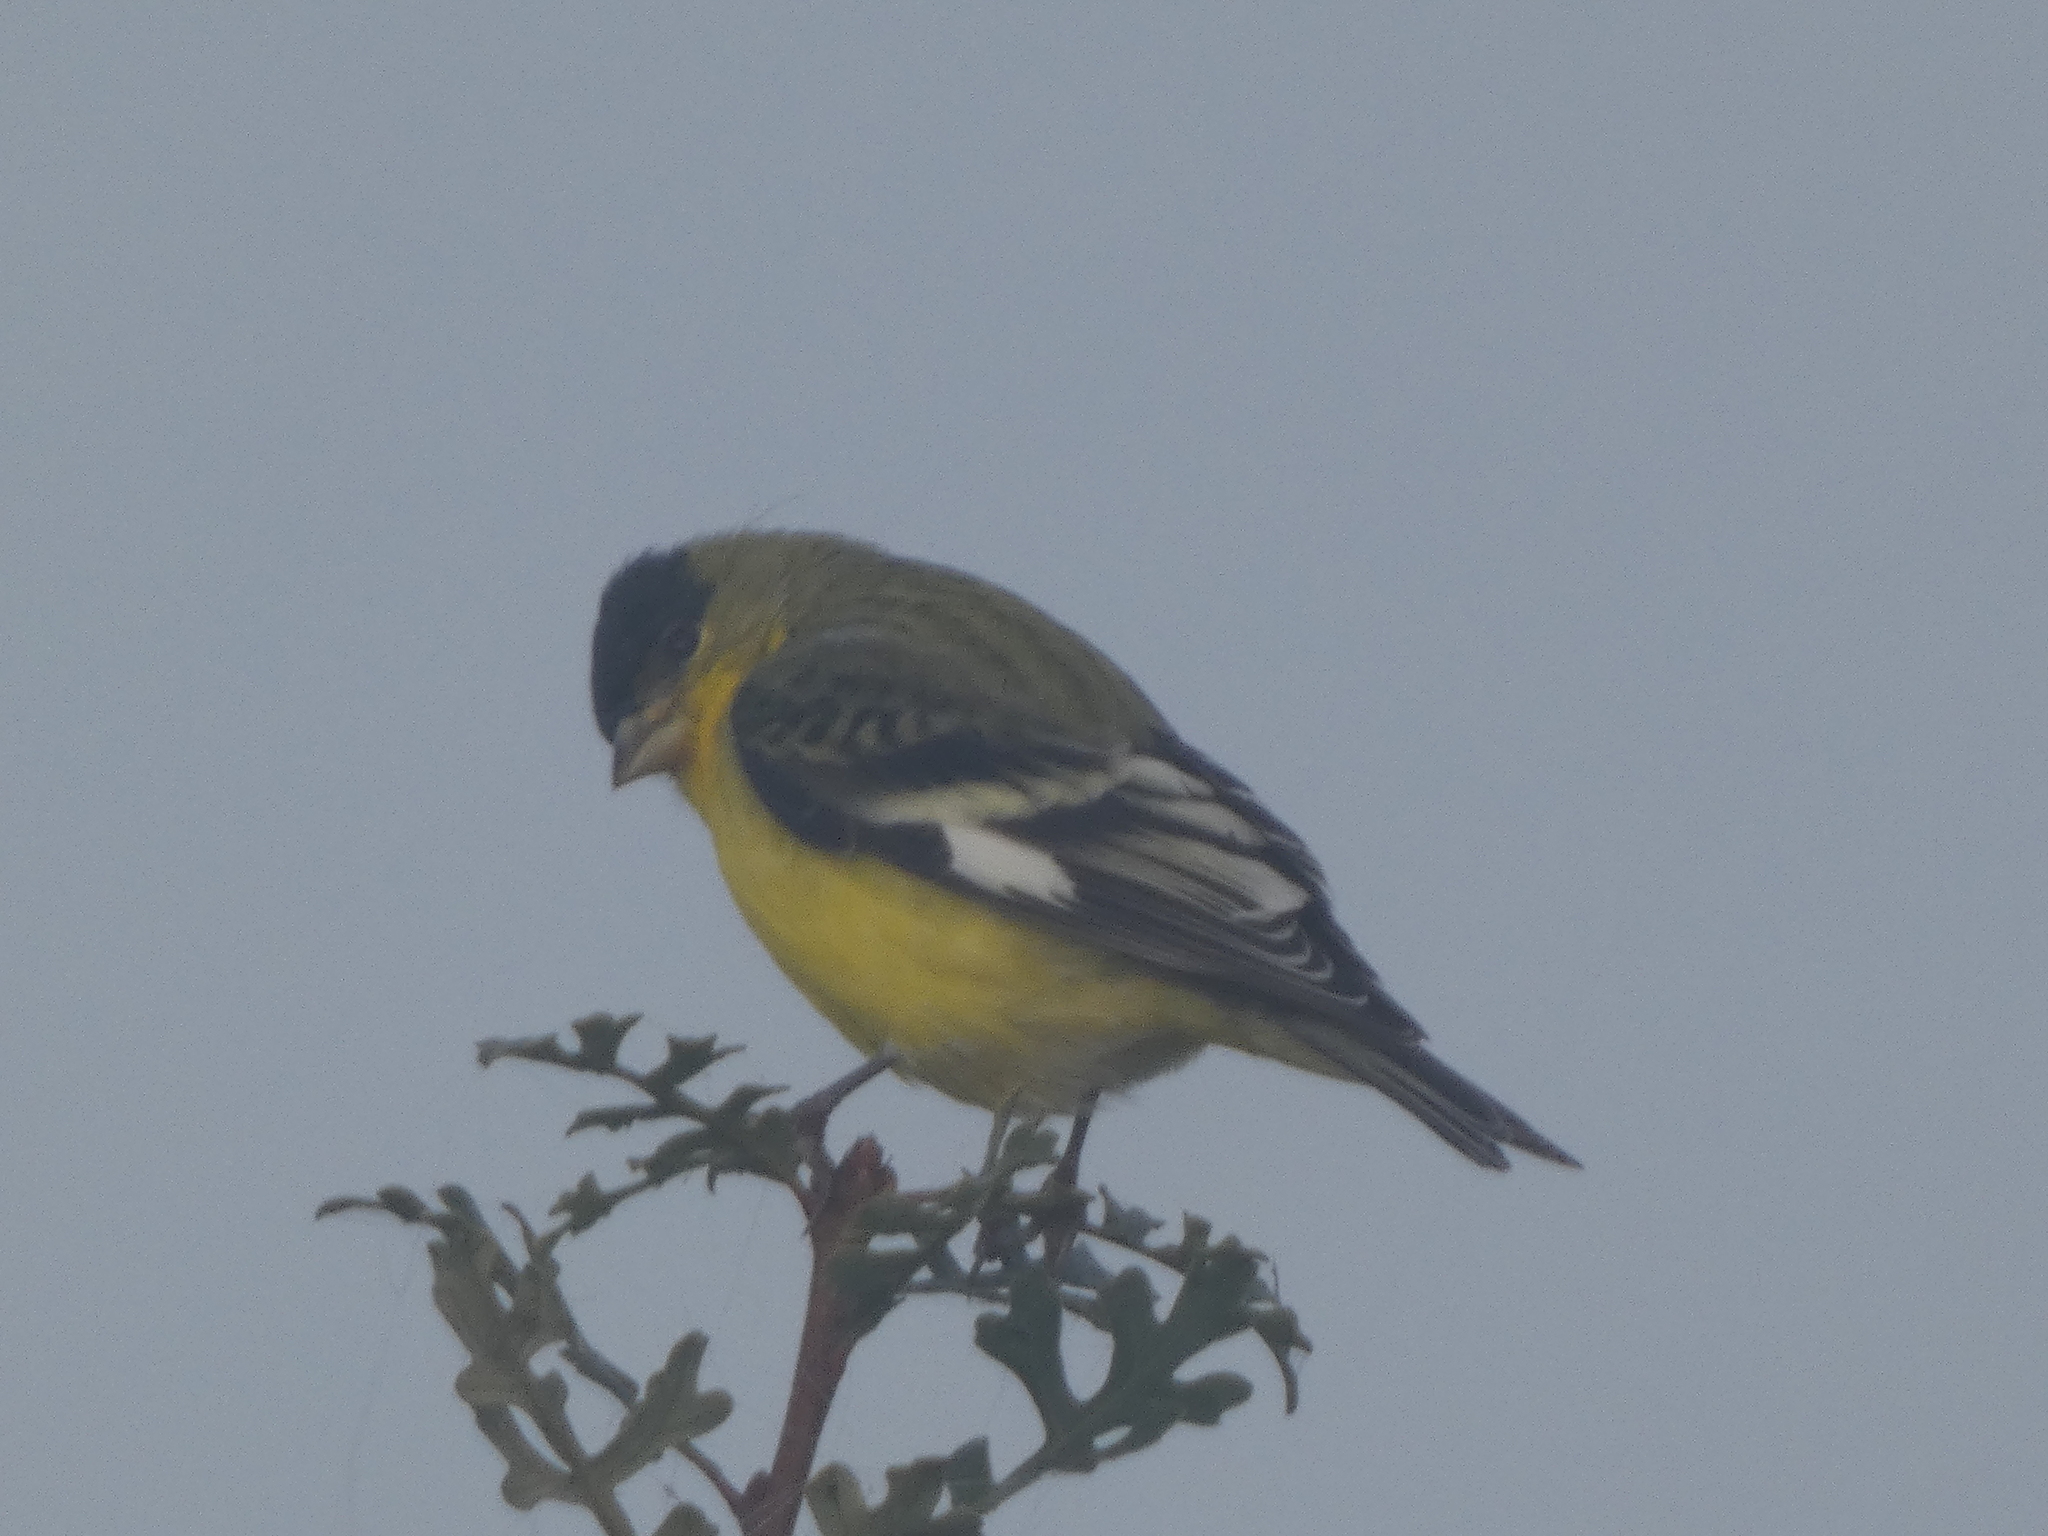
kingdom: Animalia
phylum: Chordata
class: Aves
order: Passeriformes
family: Fringillidae
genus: Spinus
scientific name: Spinus psaltria
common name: Lesser goldfinch
